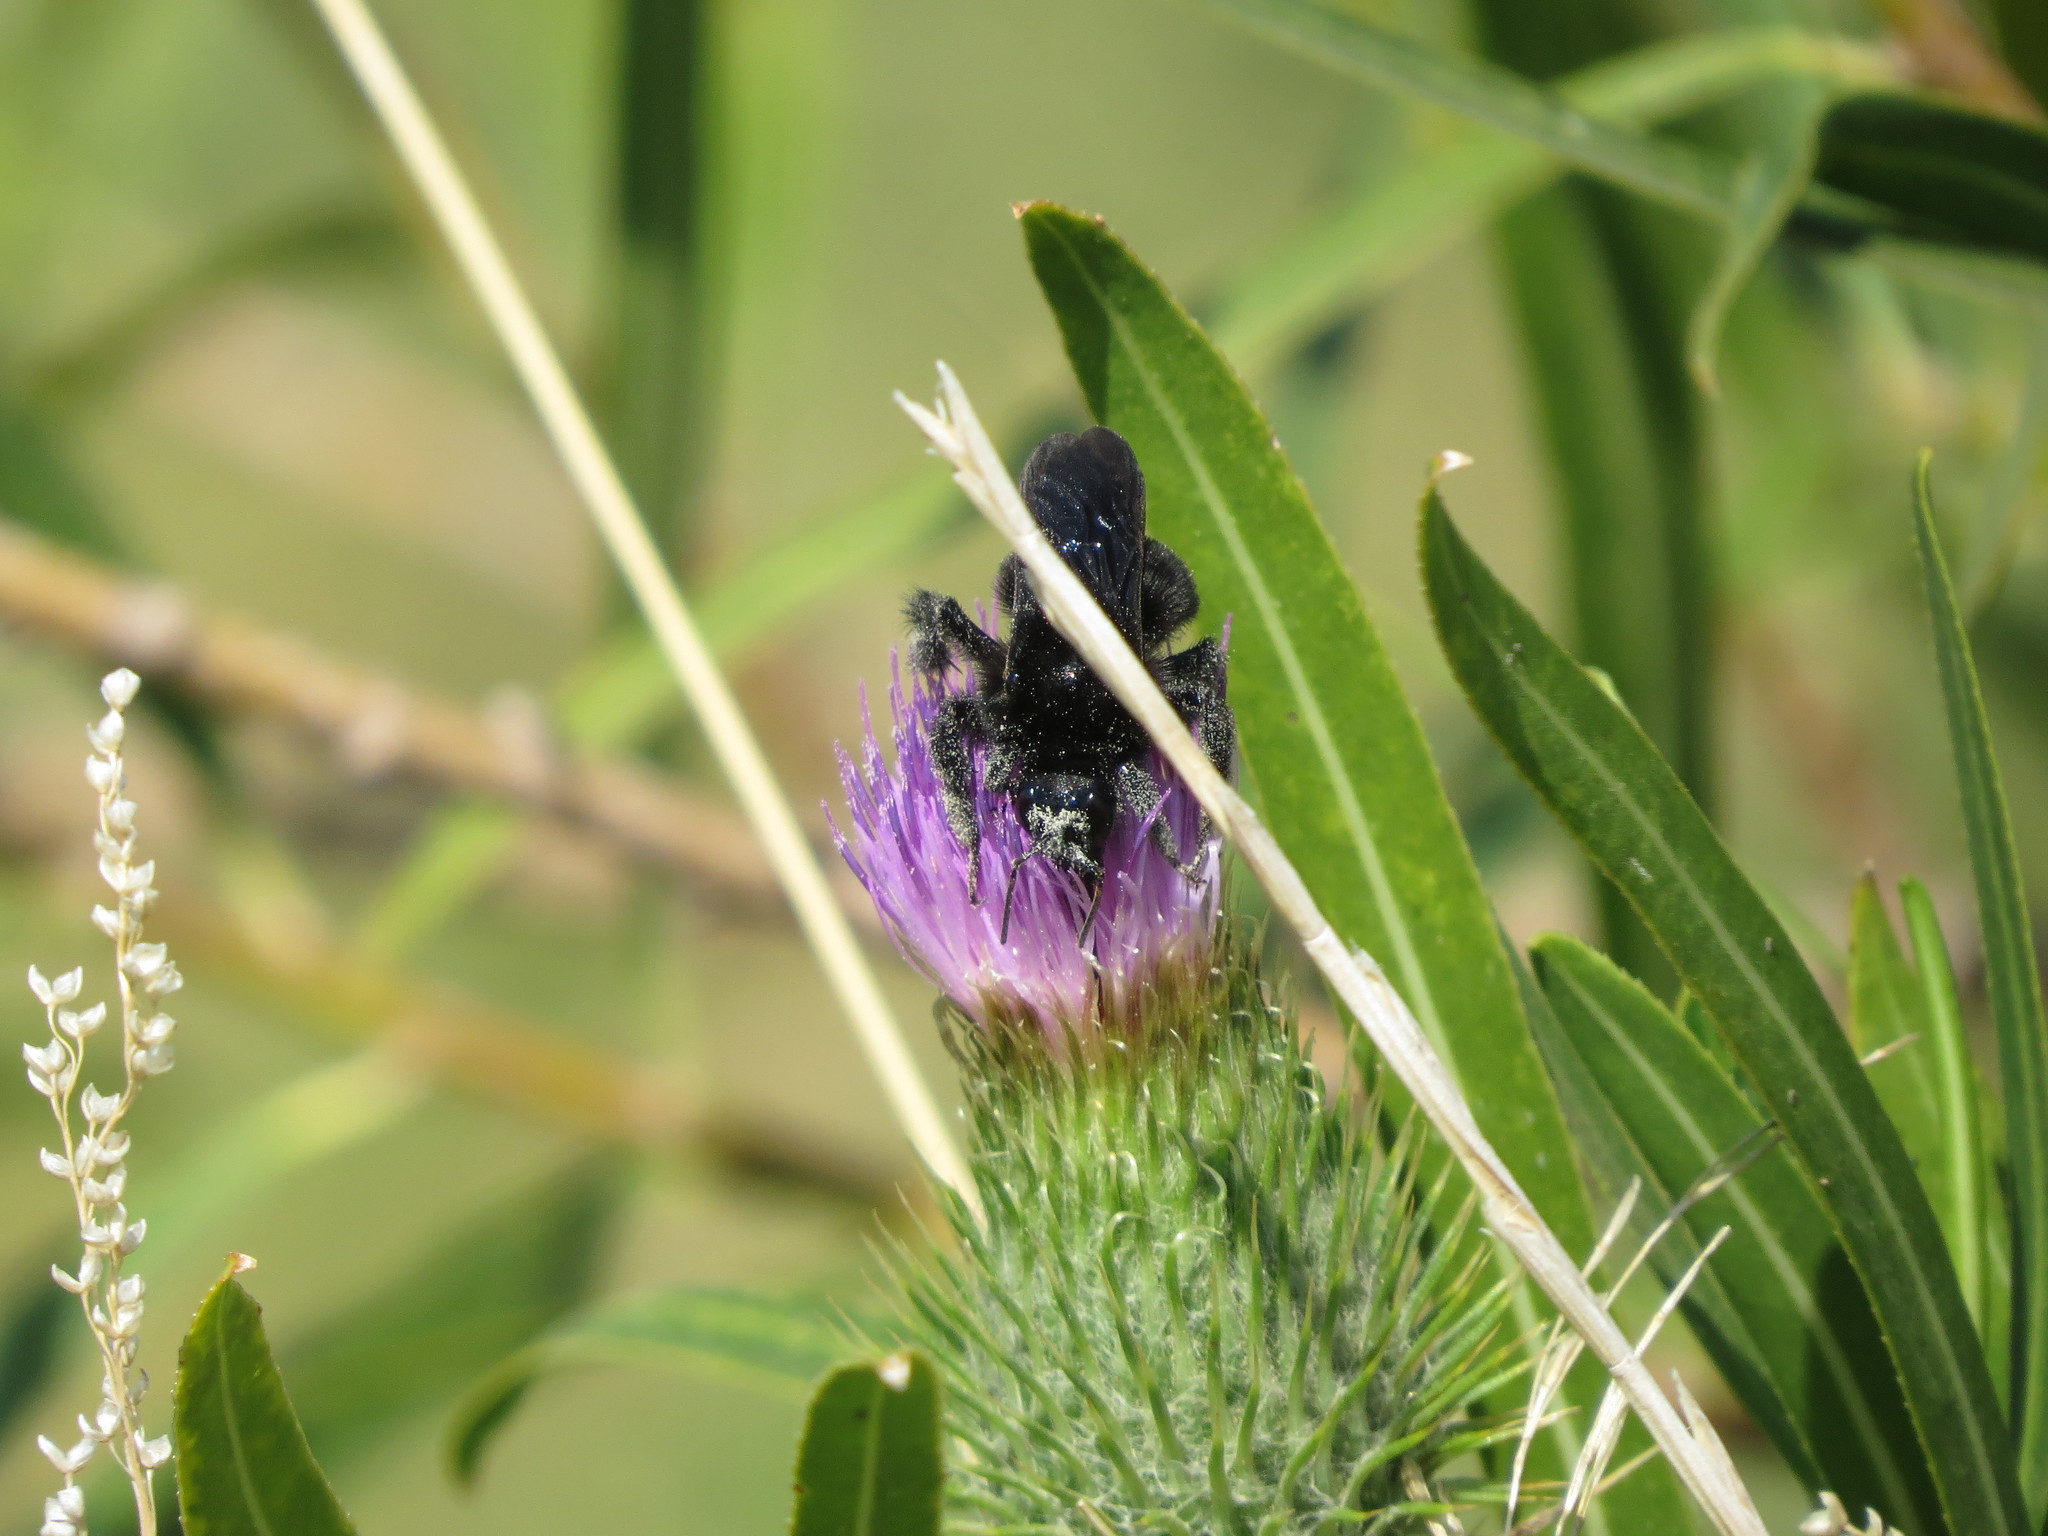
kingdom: Animalia
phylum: Arthropoda
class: Insecta
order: Hymenoptera
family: Apidae
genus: Bombus
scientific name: Bombus pauloensis
